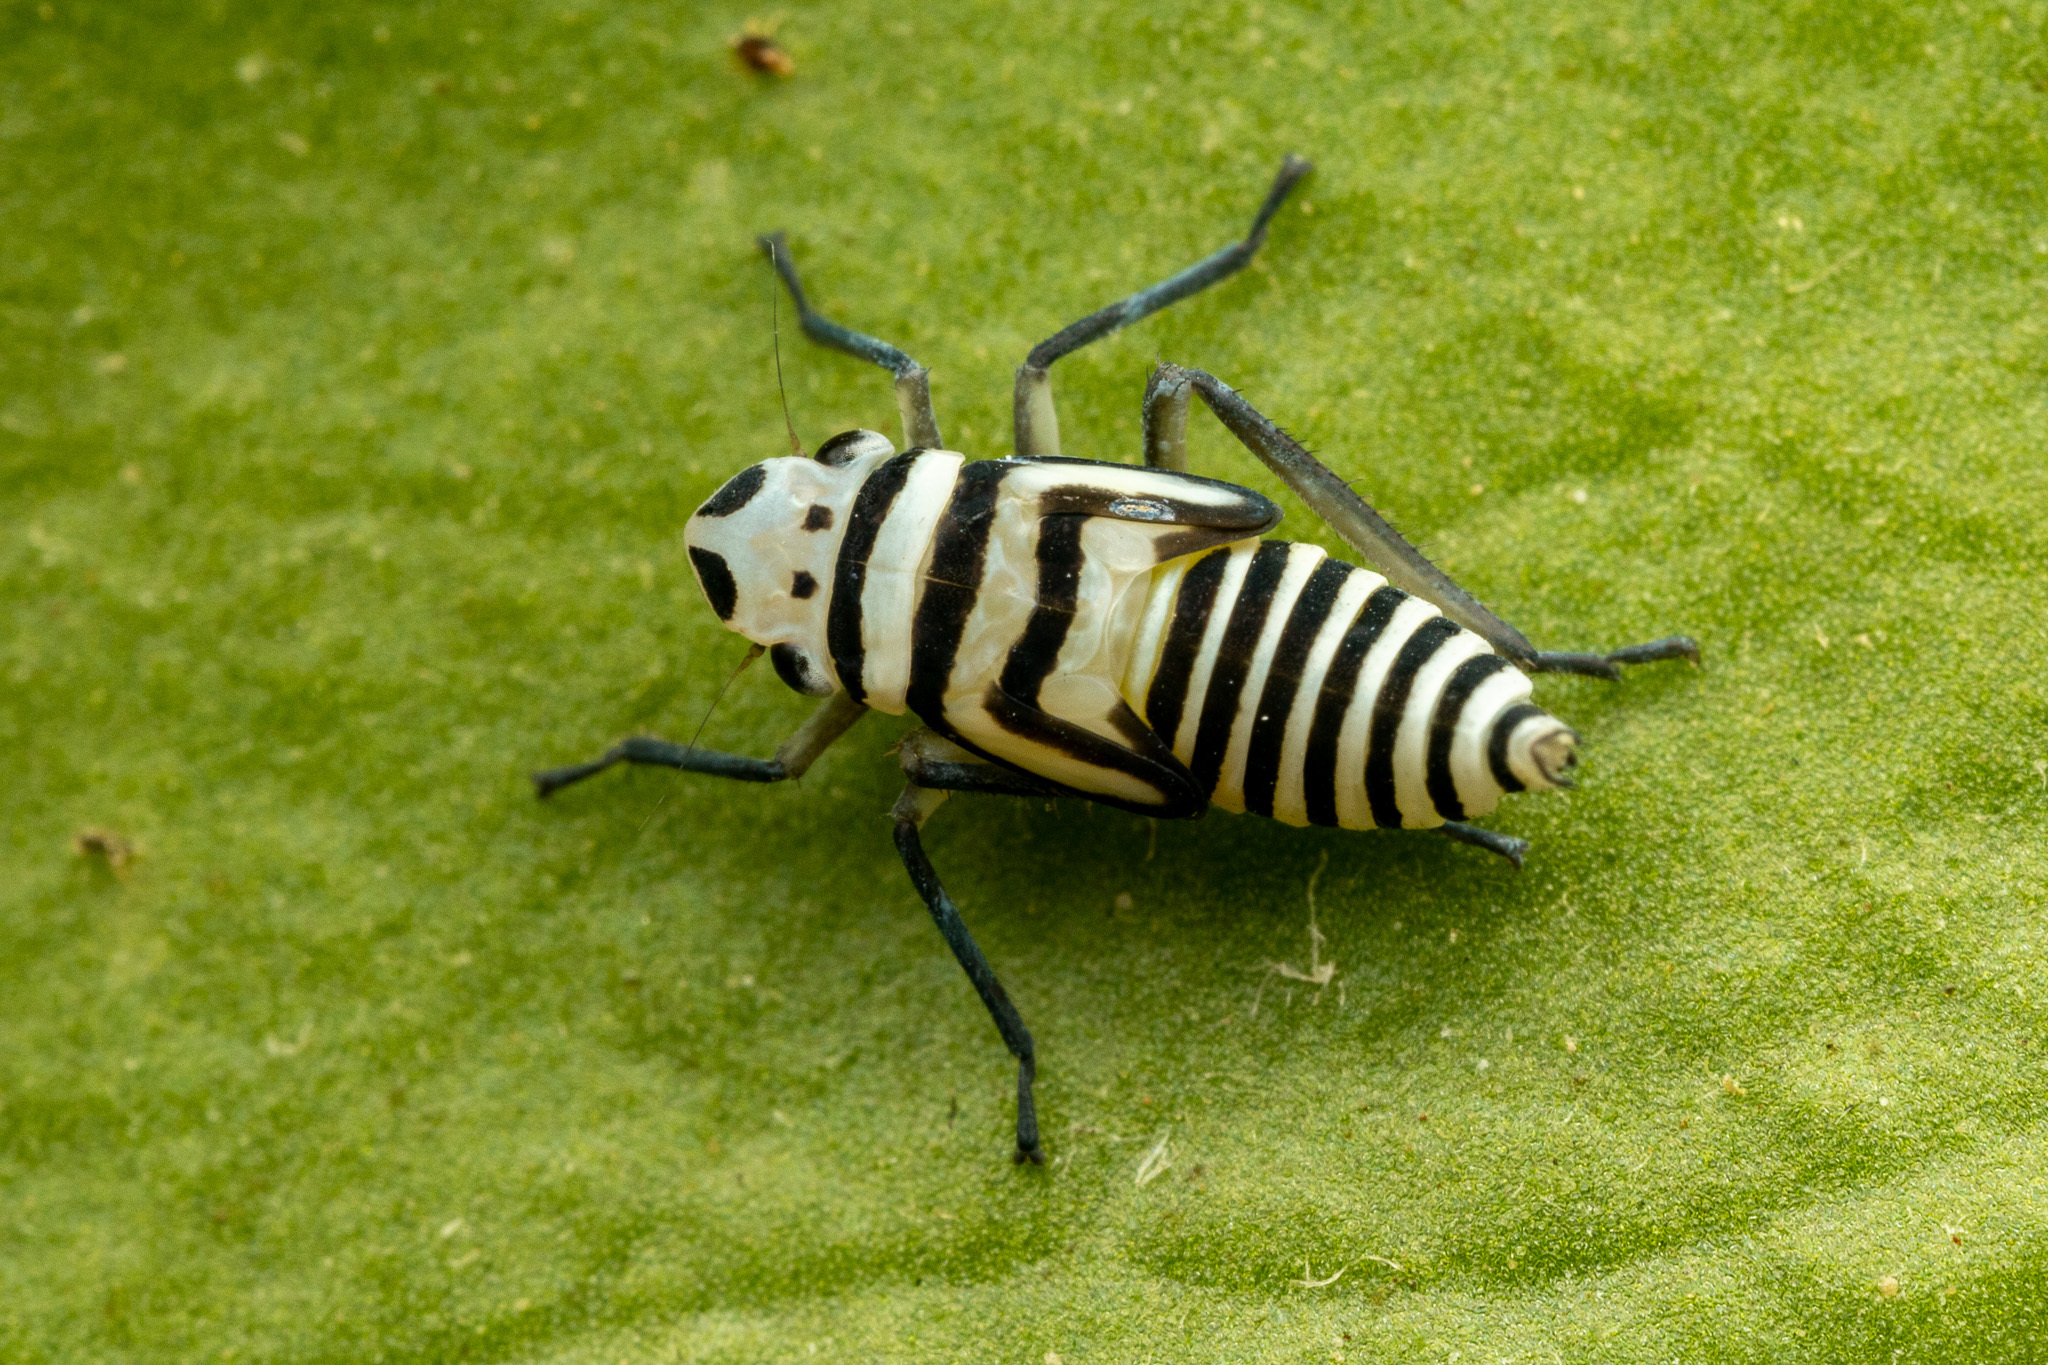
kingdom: Animalia
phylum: Arthropoda
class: Insecta
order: Hemiptera
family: Cicadellidae
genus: Agrosoma
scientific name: Agrosoma placetis
